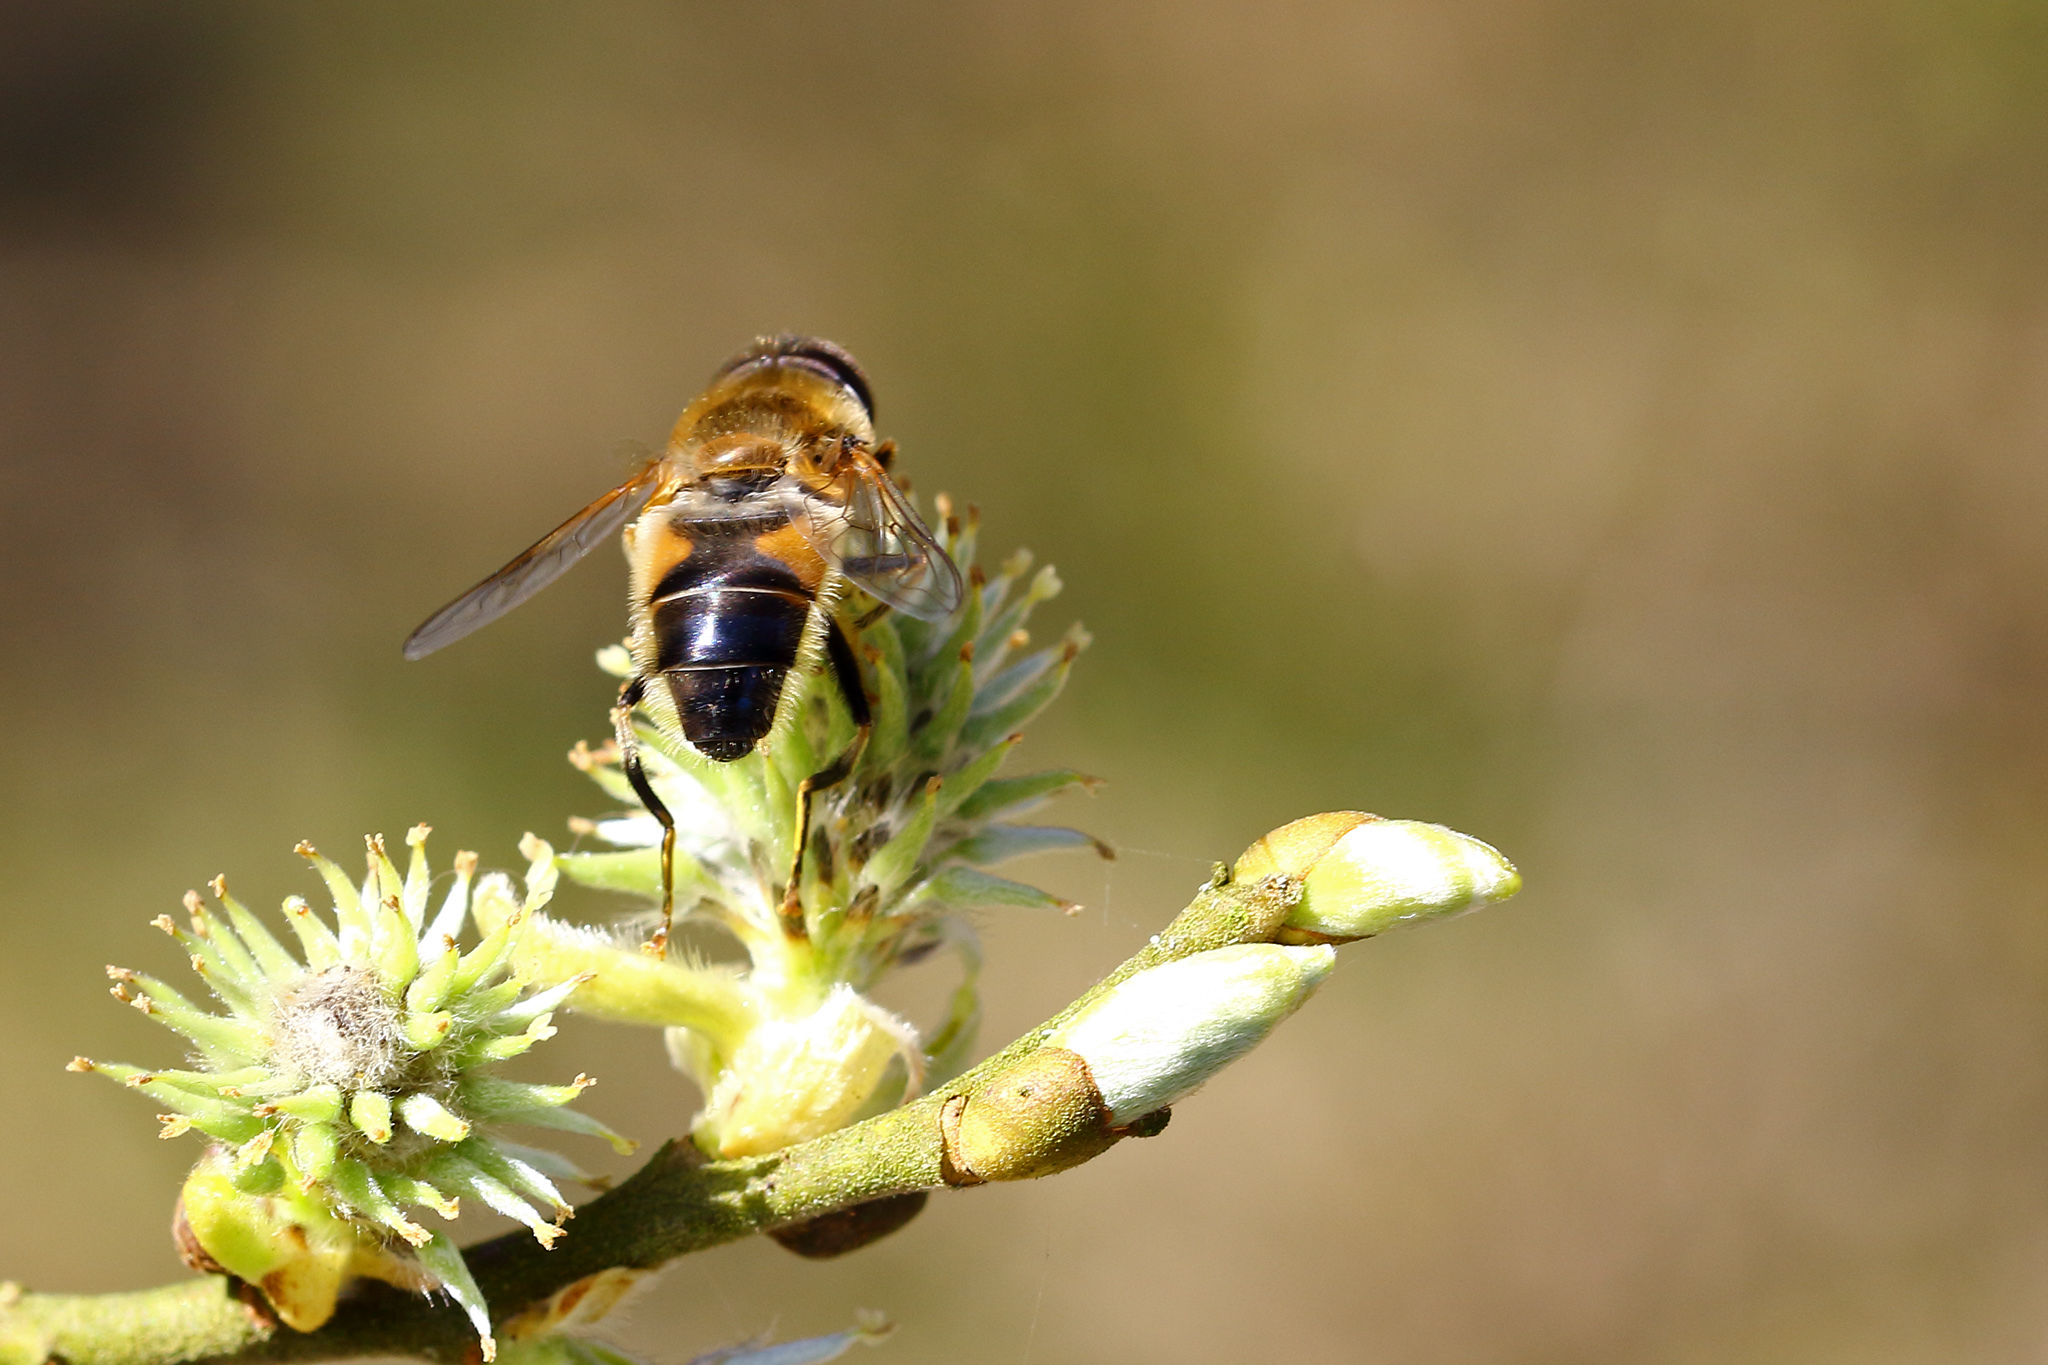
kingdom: Animalia
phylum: Arthropoda
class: Insecta
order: Diptera
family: Syrphidae
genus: Eristalis
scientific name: Eristalis pertinax
